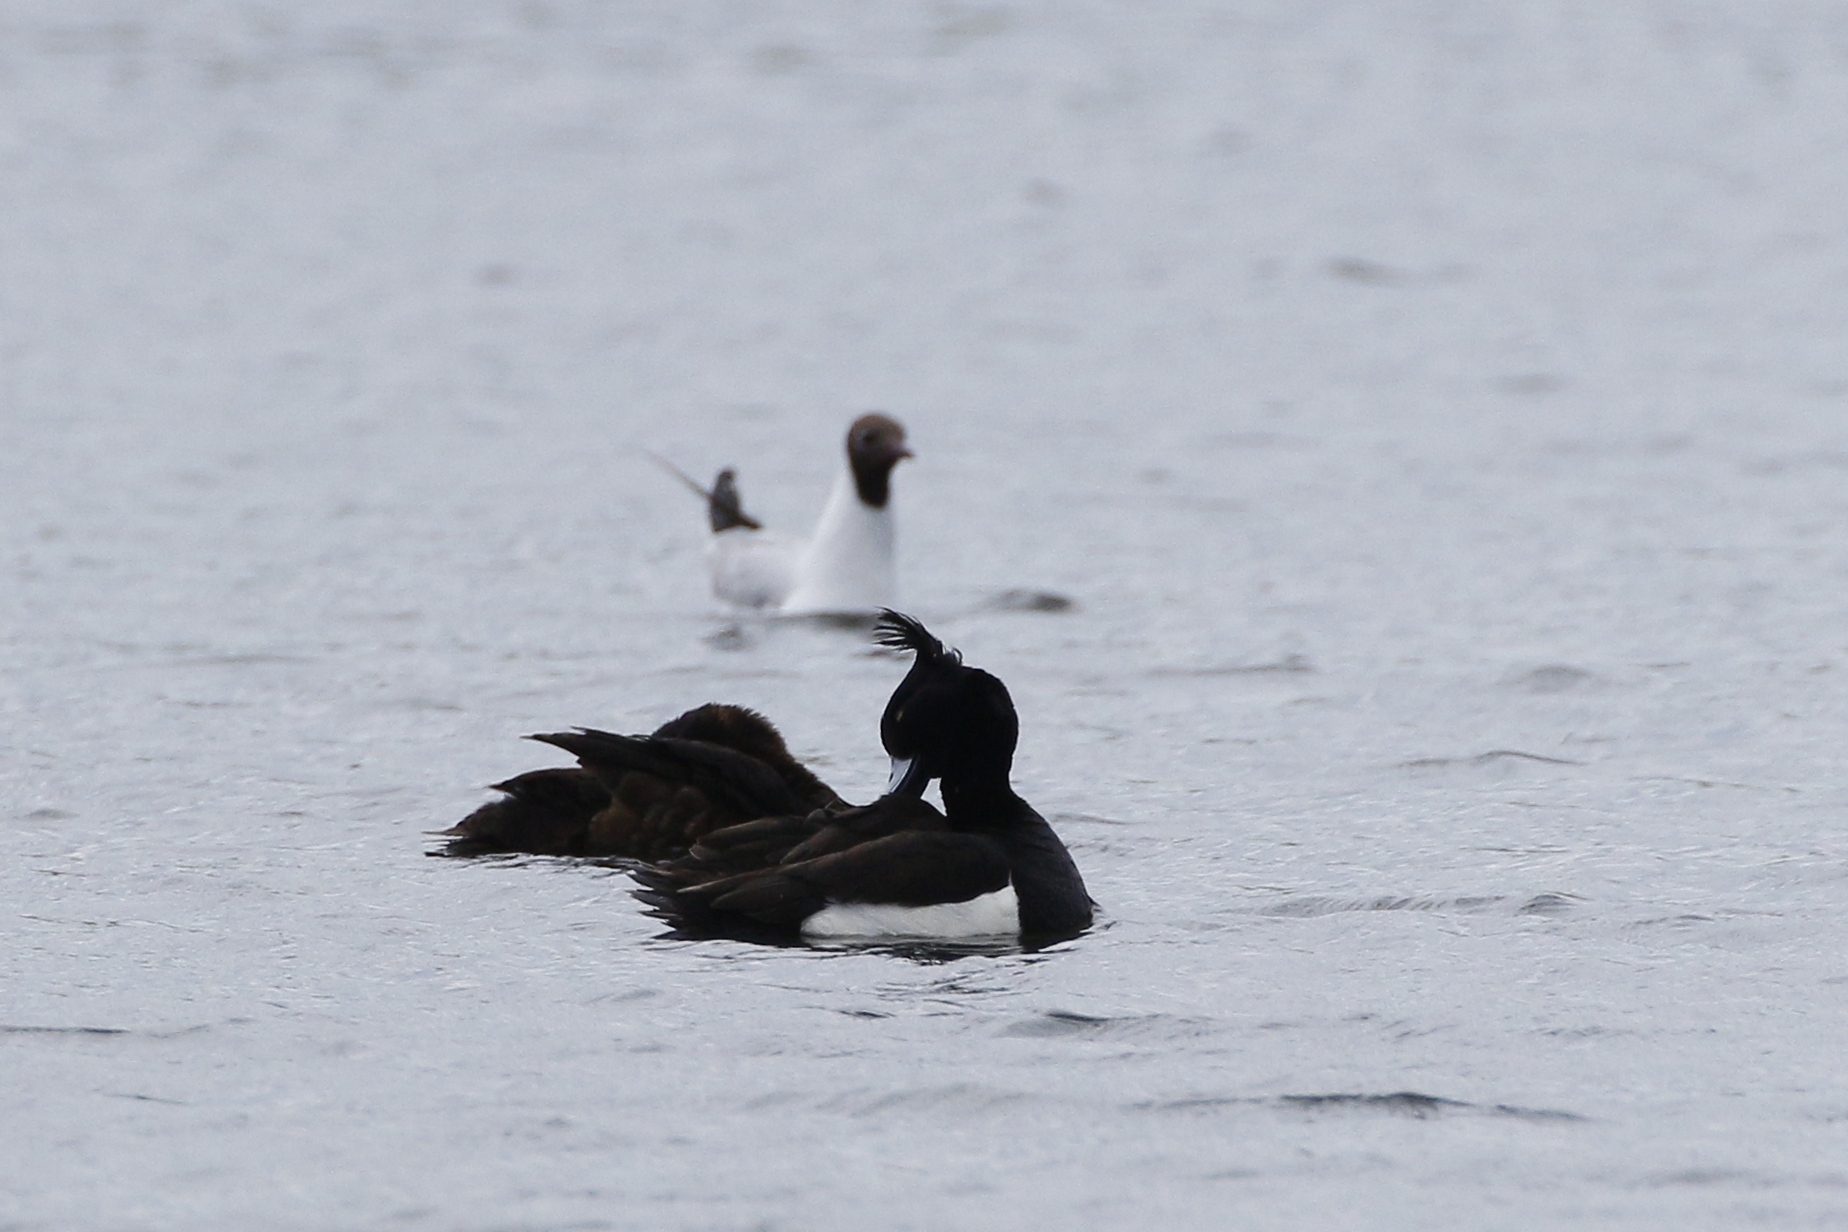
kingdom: Animalia
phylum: Chordata
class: Aves
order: Anseriformes
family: Anatidae
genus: Aythya
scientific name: Aythya fuligula
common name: Tufted duck
